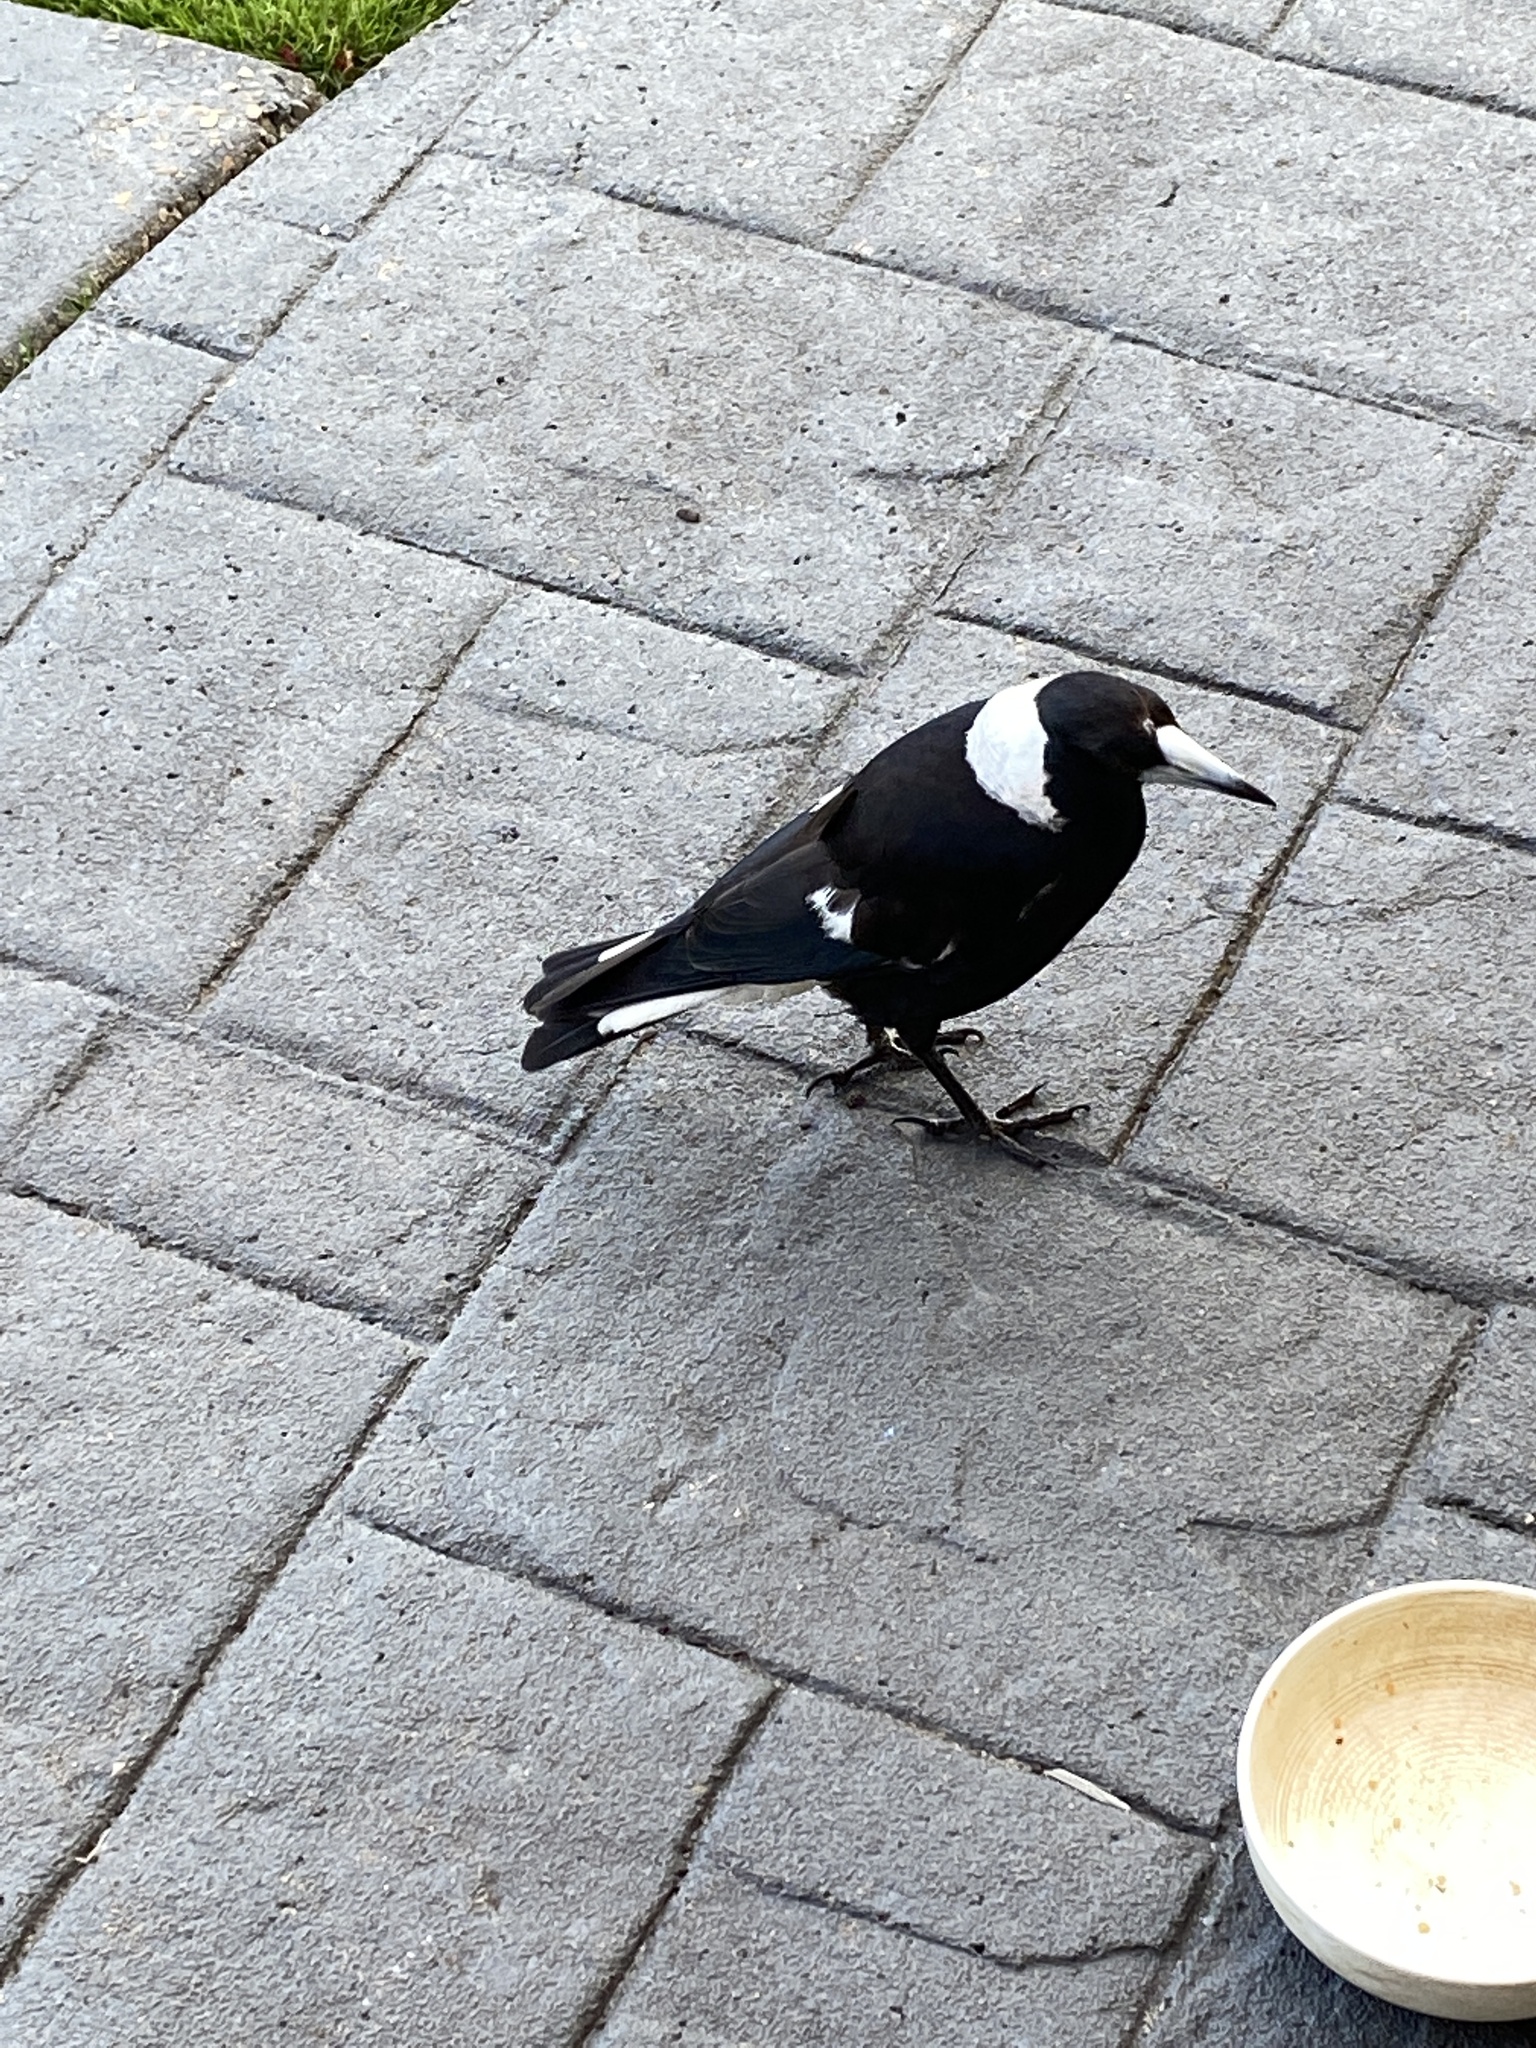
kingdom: Animalia
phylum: Chordata
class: Aves
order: Passeriformes
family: Cracticidae
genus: Gymnorhina
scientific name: Gymnorhina tibicen
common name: Australian magpie
